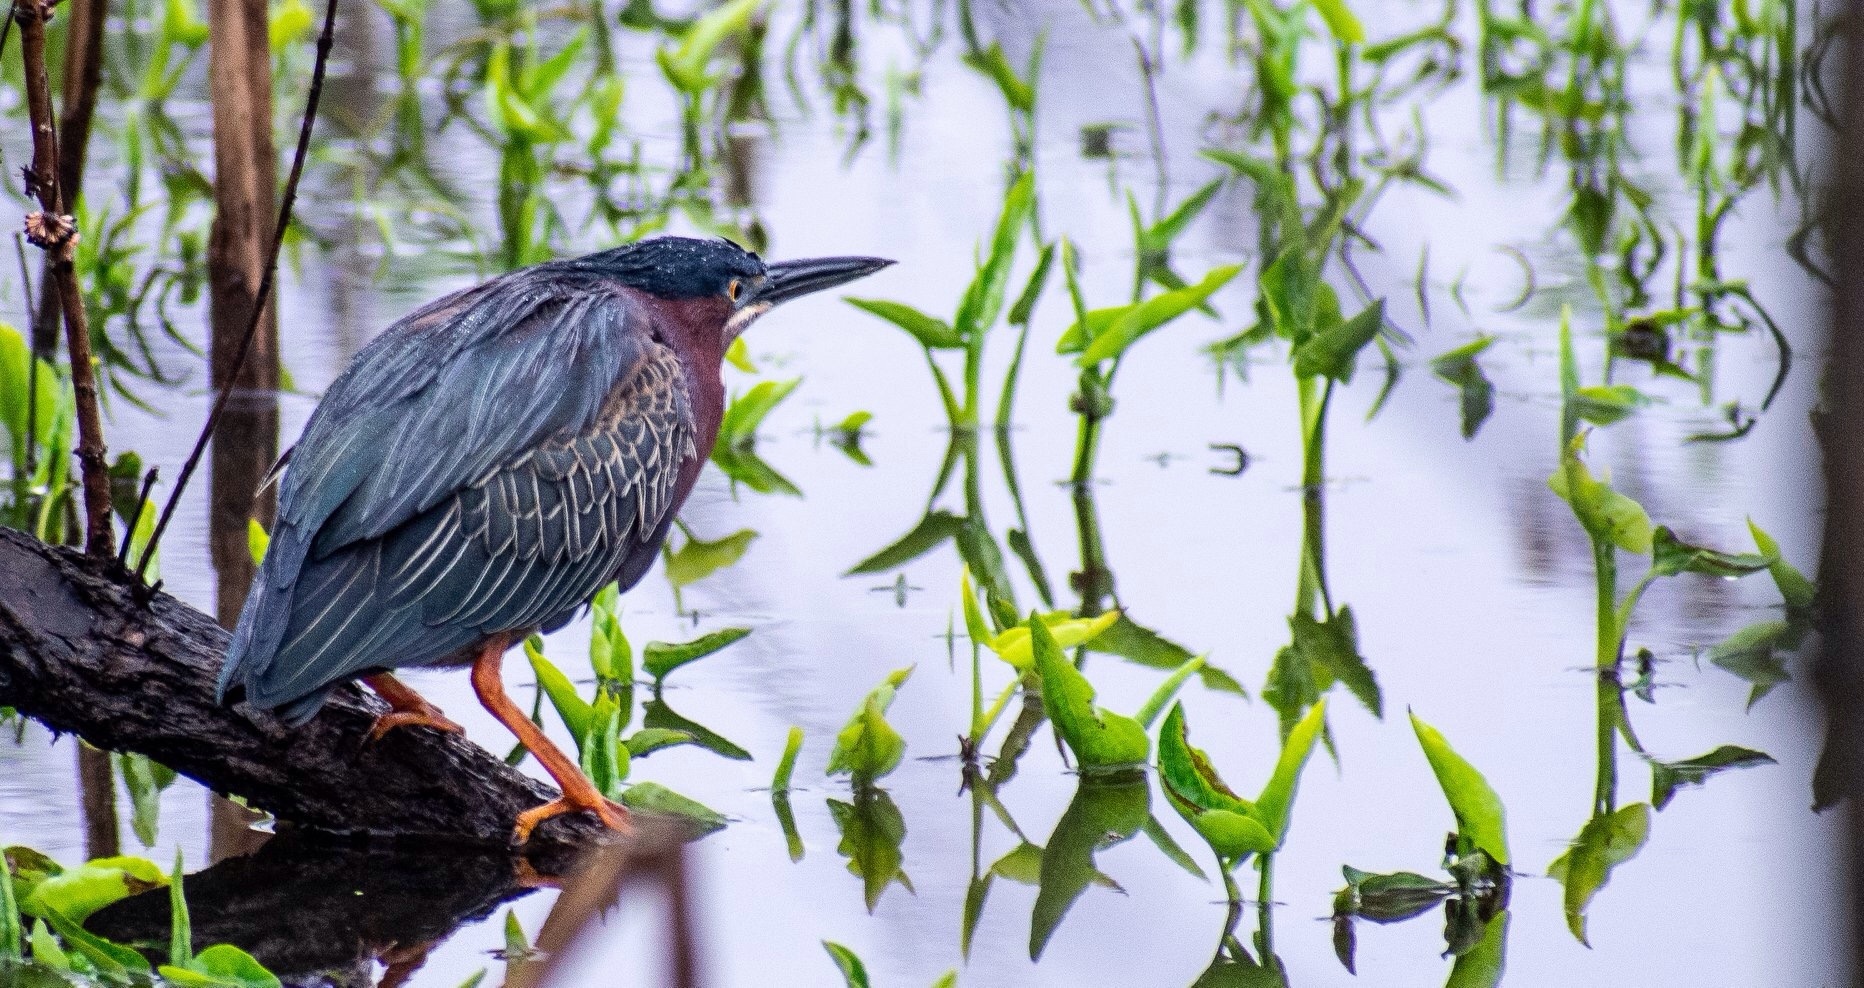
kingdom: Animalia
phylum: Chordata
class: Aves
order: Pelecaniformes
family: Ardeidae
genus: Butorides
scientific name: Butorides virescens
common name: Green heron
